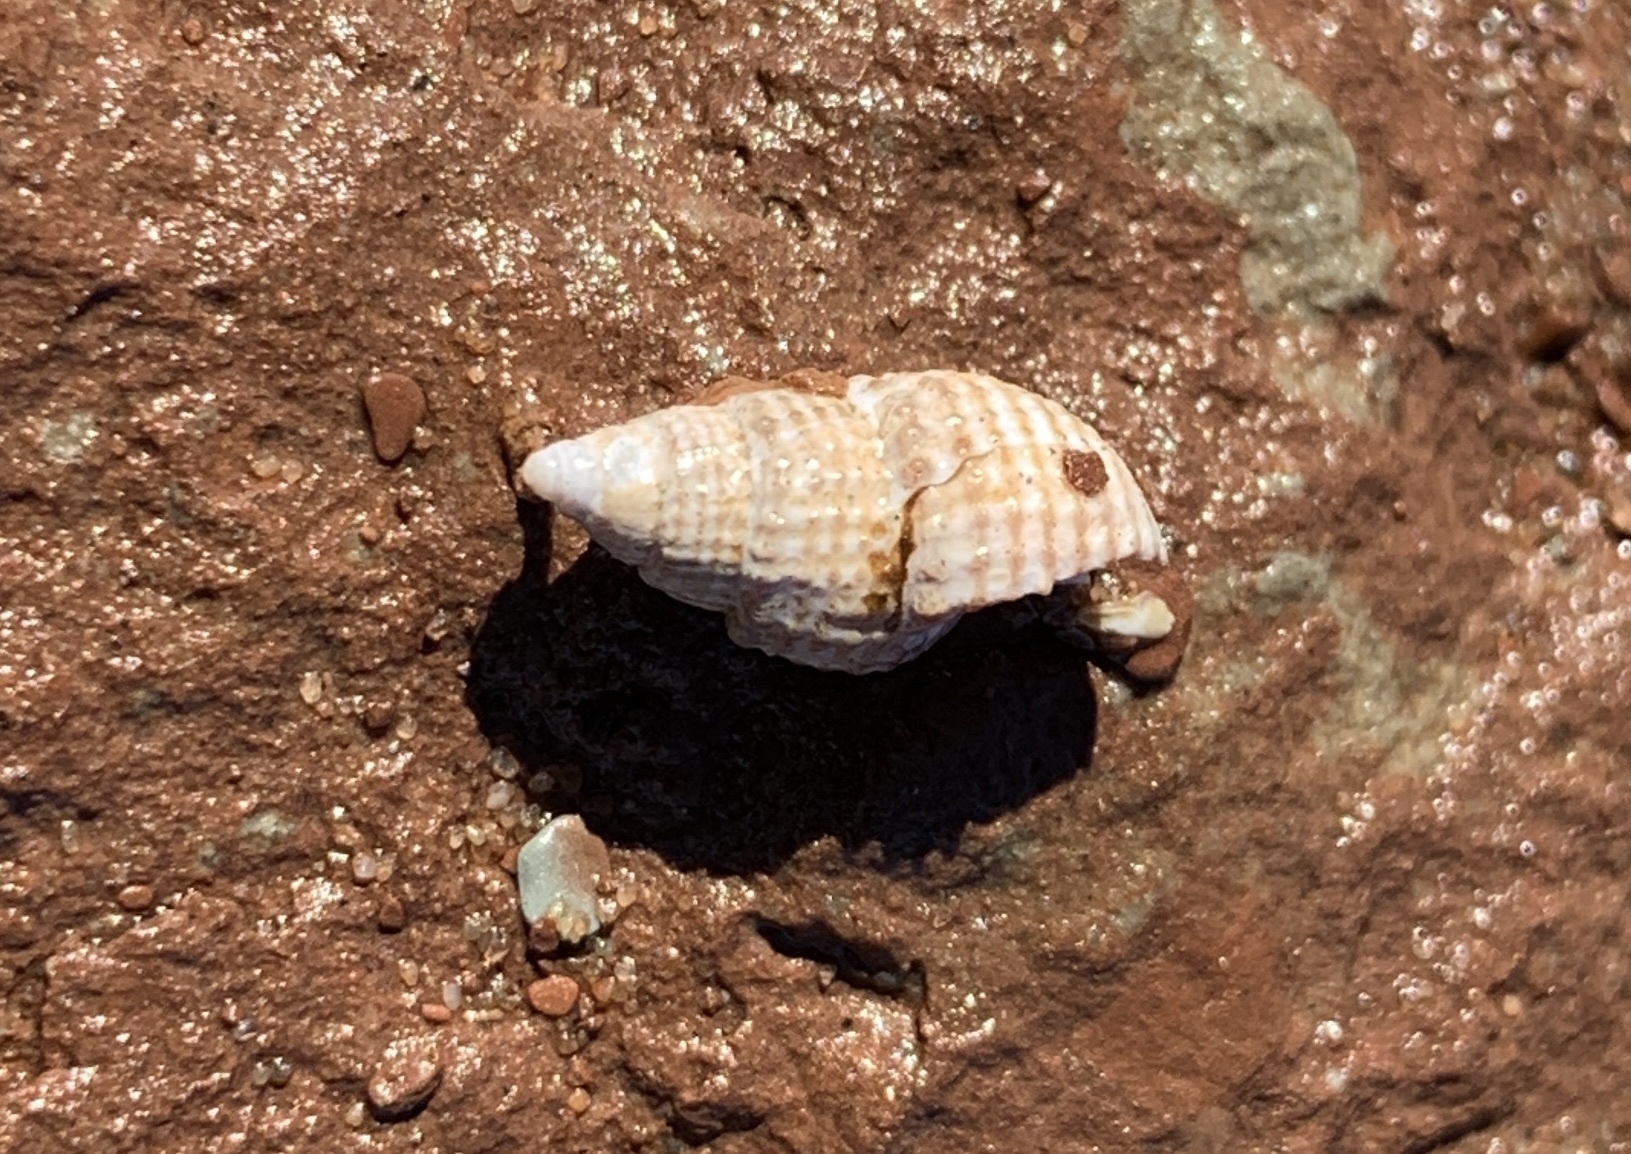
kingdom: Animalia
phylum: Mollusca
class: Gastropoda
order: Neogastropoda
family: Nassariidae
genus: Ilyanassa
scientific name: Ilyanassa trivittata
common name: Three-line mudsnail
